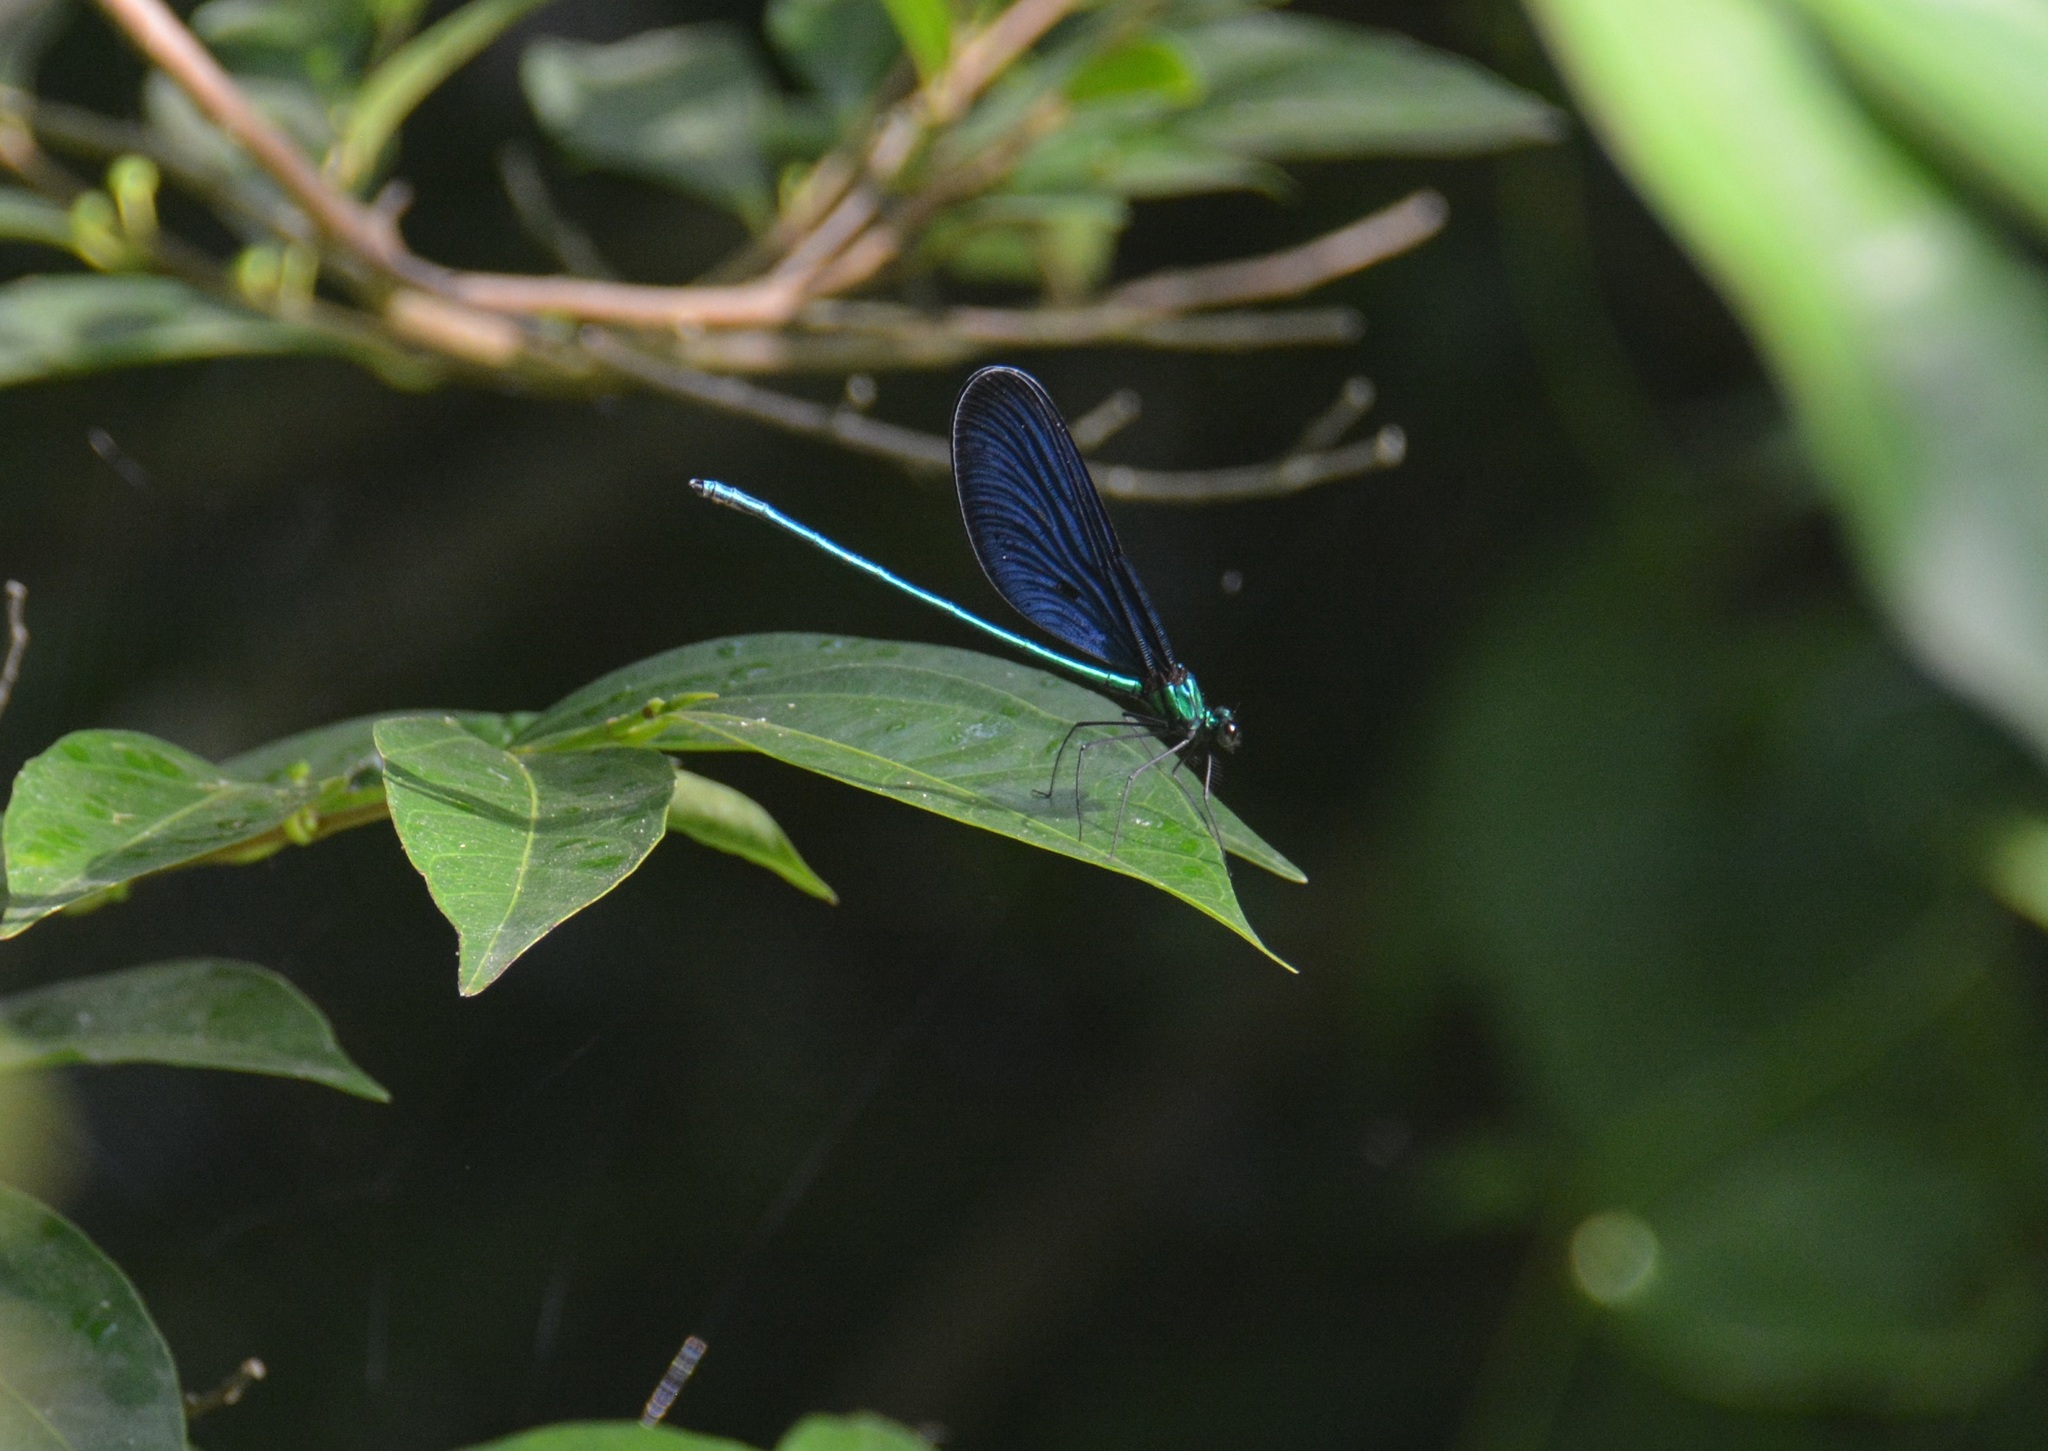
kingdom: Animalia
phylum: Arthropoda
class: Insecta
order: Odonata
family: Calopterygidae
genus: Matrona
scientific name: Matrona cyanoptera
